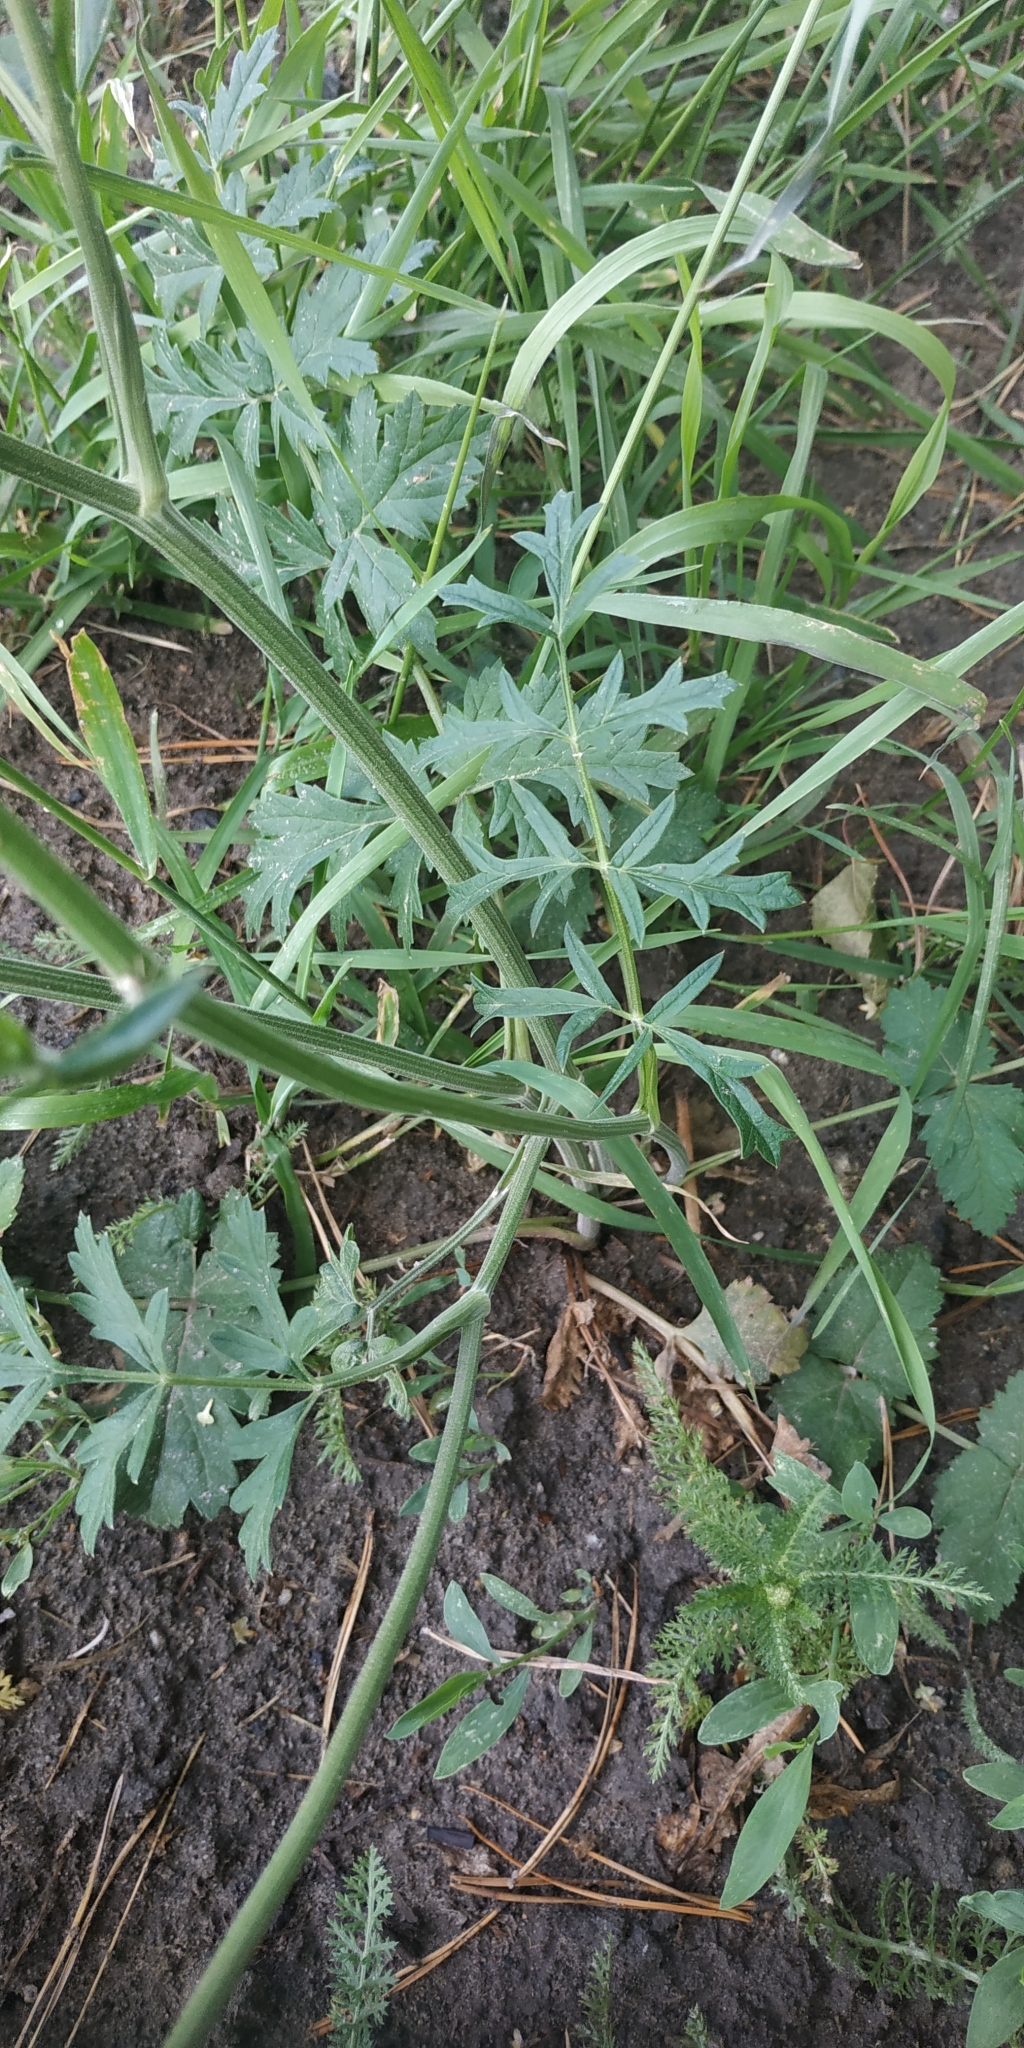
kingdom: Plantae
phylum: Tracheophyta
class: Magnoliopsida
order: Apiales
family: Apiaceae
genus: Pimpinella
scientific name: Pimpinella saxifraga
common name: Burnet-saxifrage
